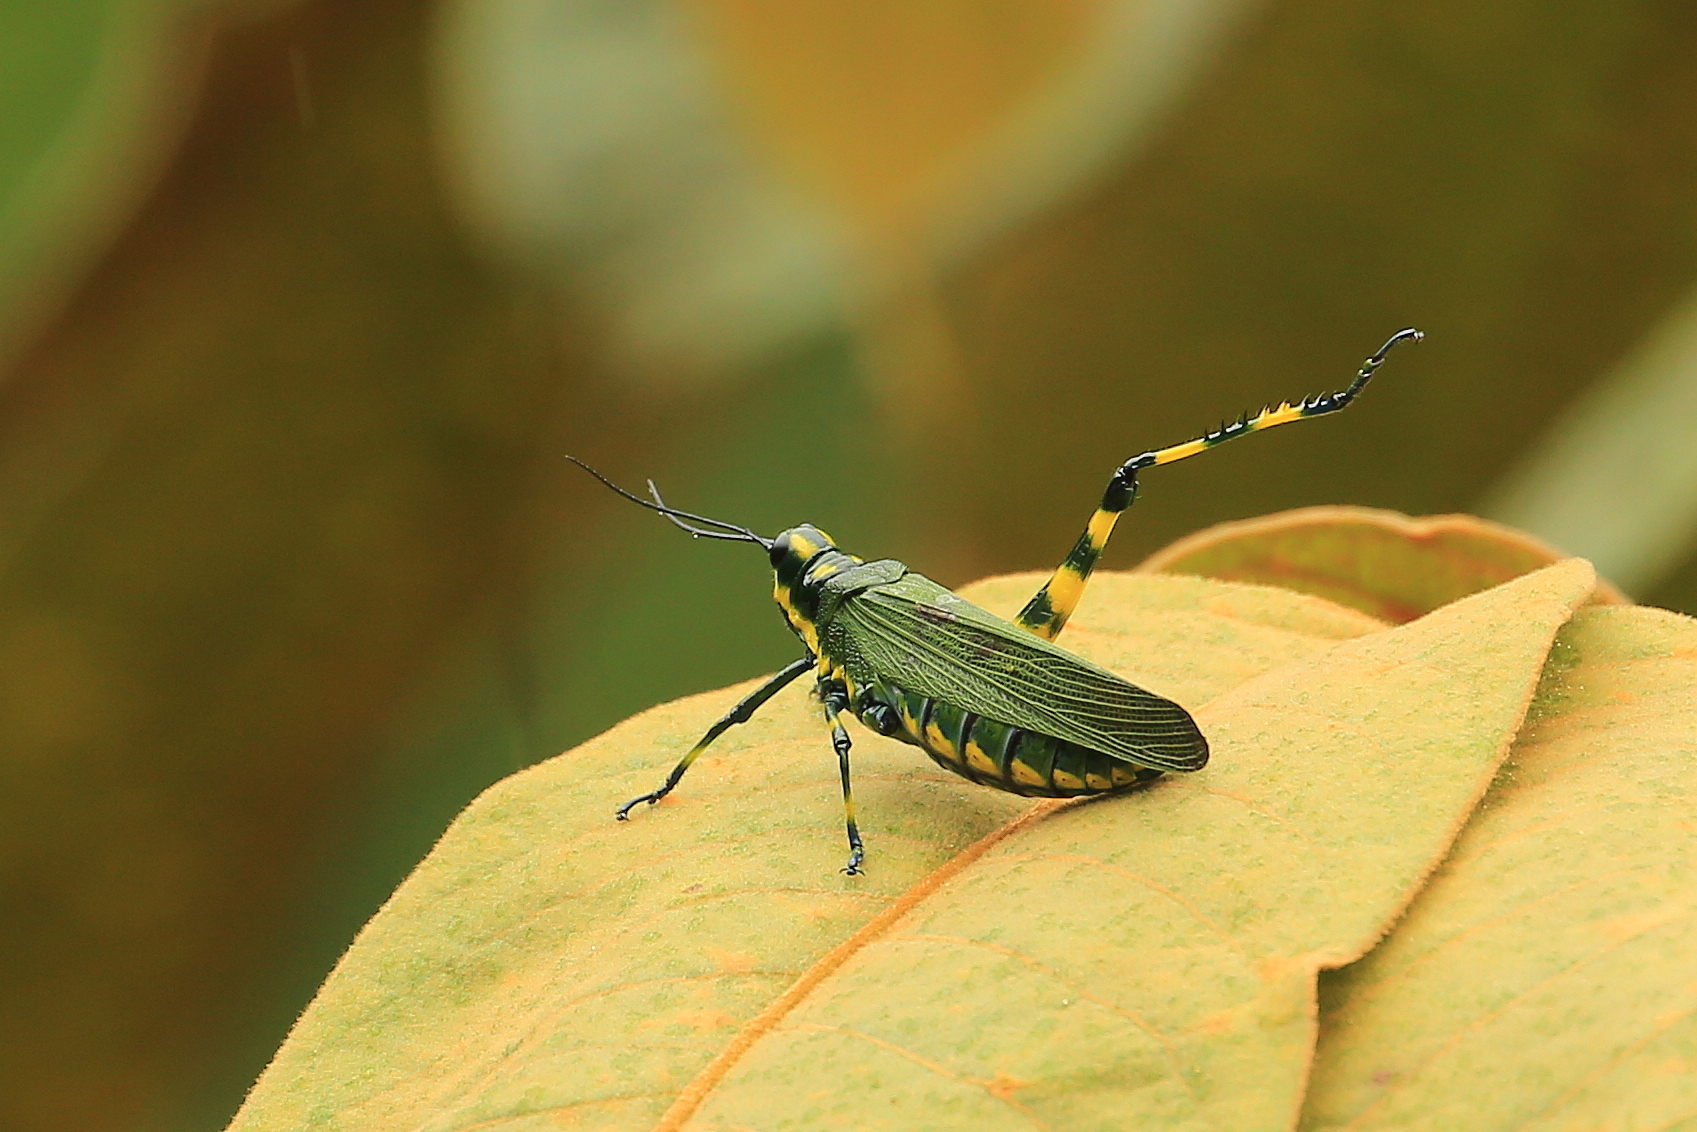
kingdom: Animalia
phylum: Arthropoda
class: Insecta
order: Orthoptera
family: Romaleidae
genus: Chromacris
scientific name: Chromacris psittacus
